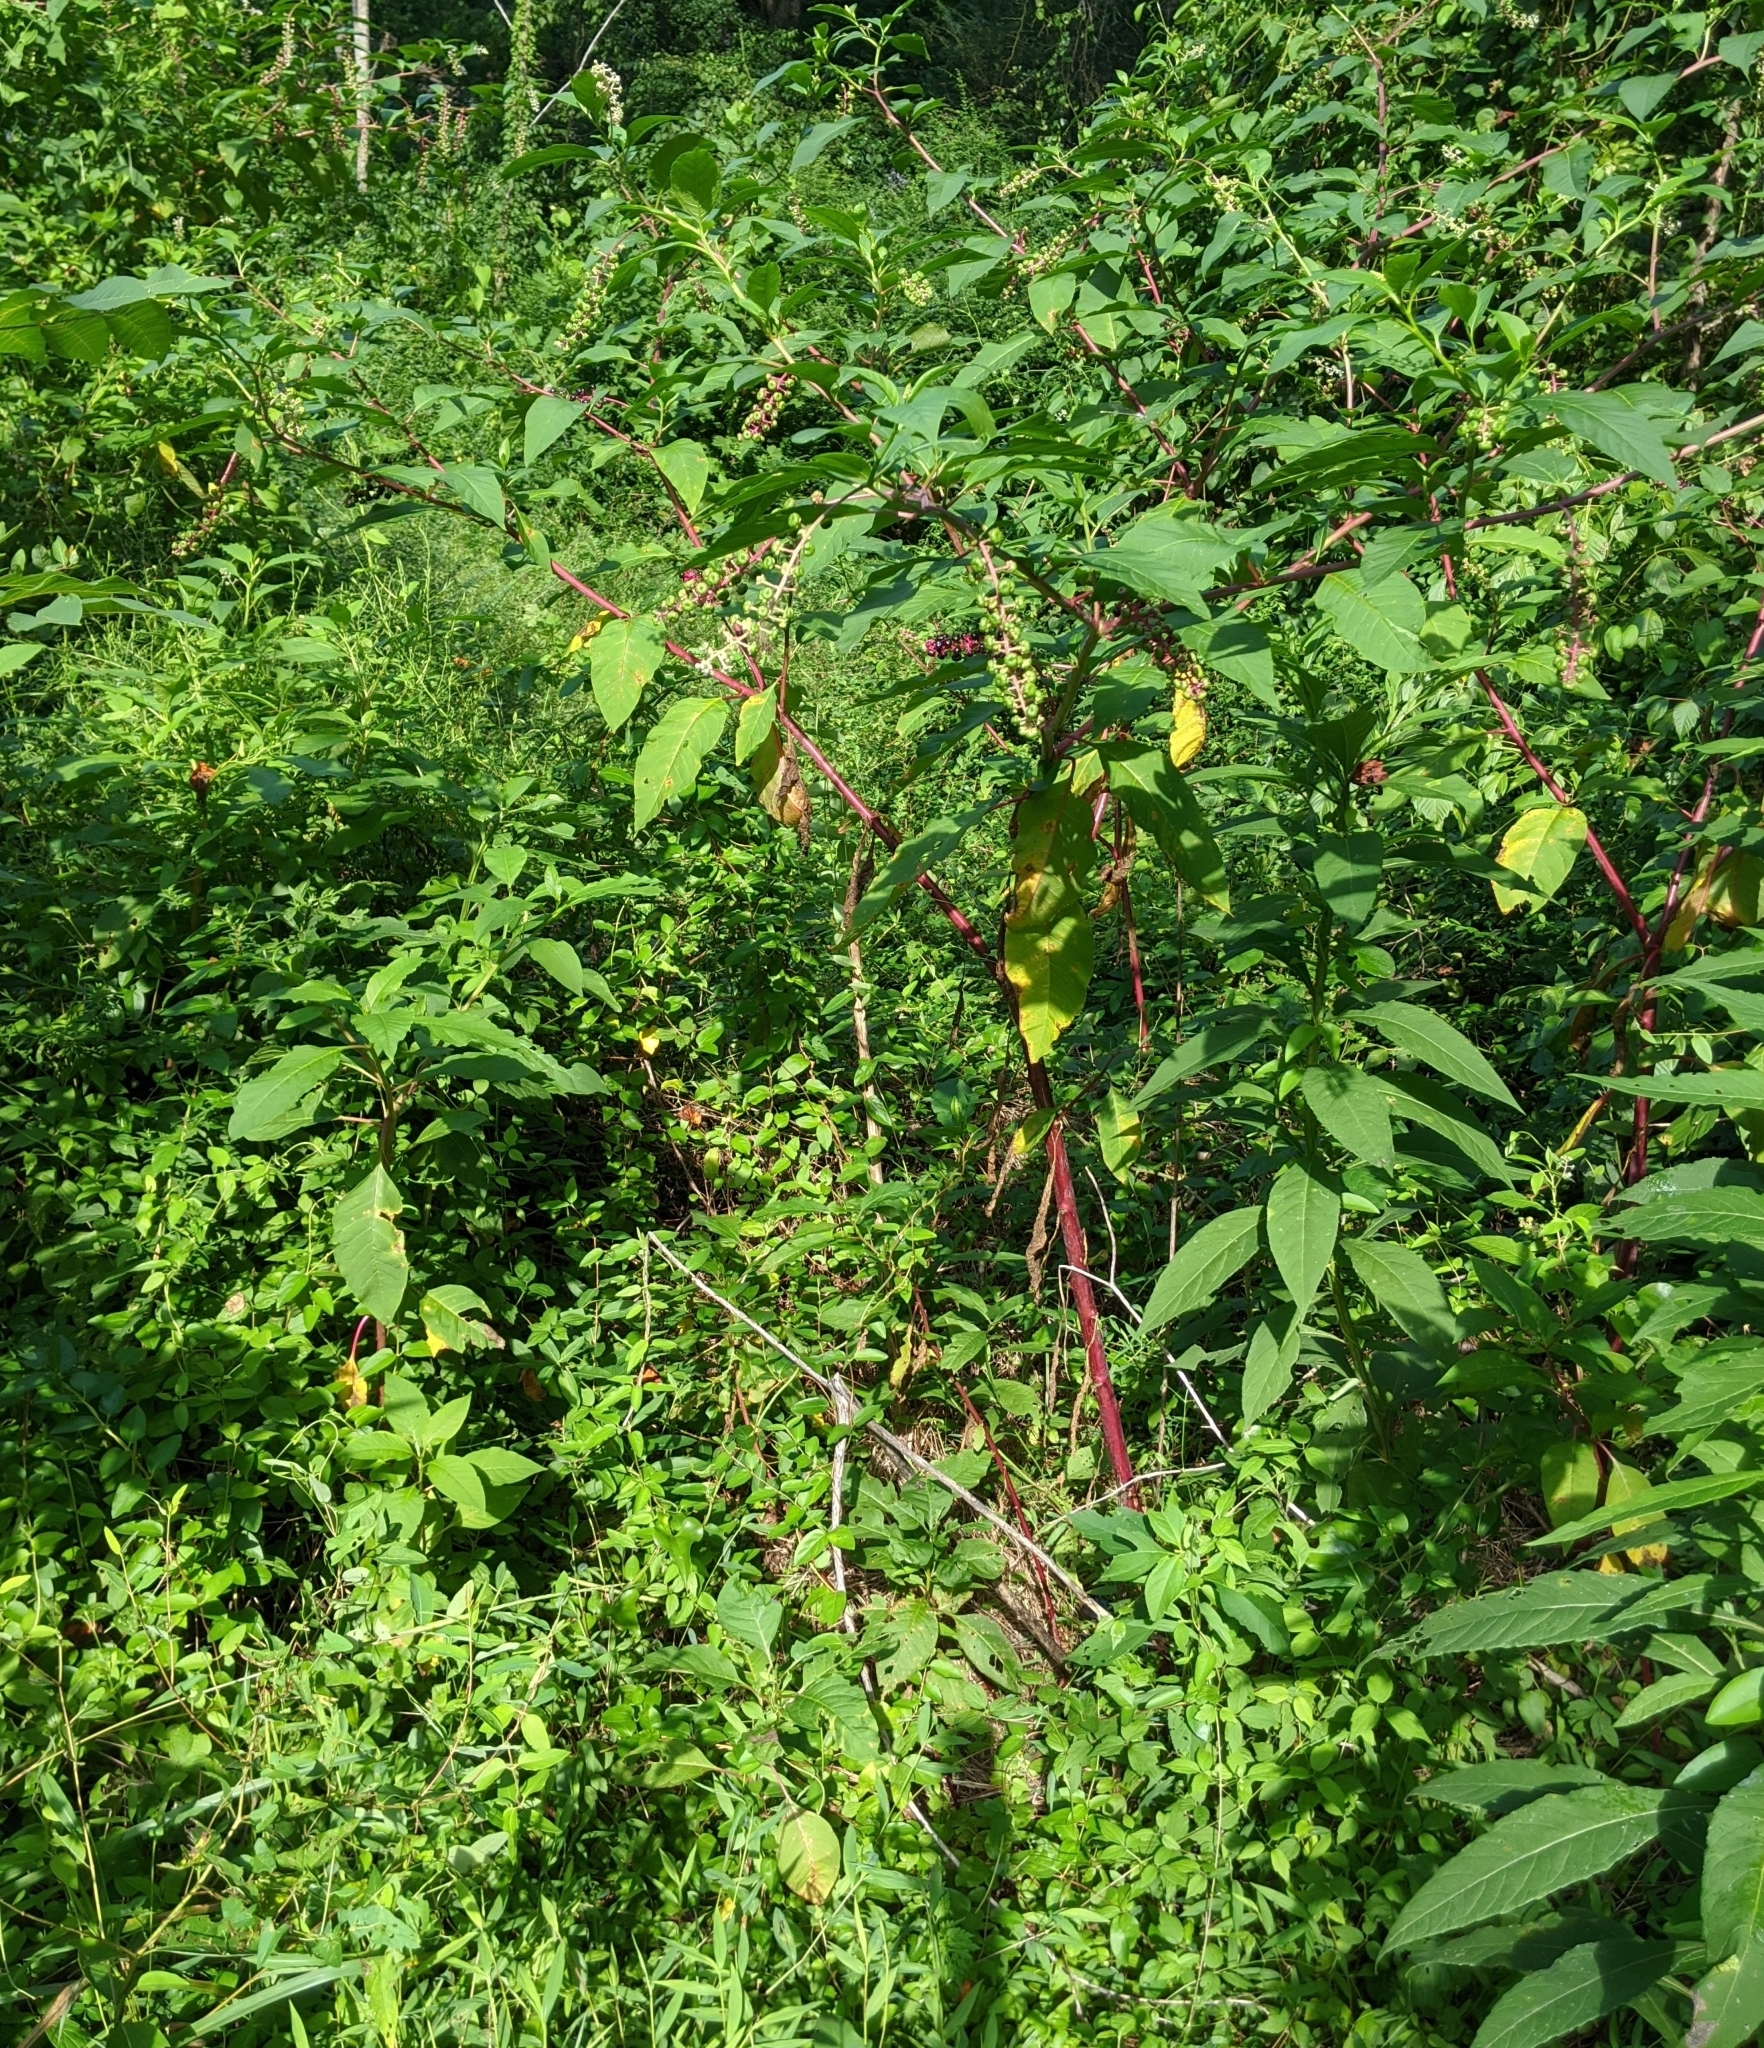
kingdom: Plantae
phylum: Tracheophyta
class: Magnoliopsida
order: Caryophyllales
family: Phytolaccaceae
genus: Phytolacca
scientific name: Phytolacca americana
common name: American pokeweed
